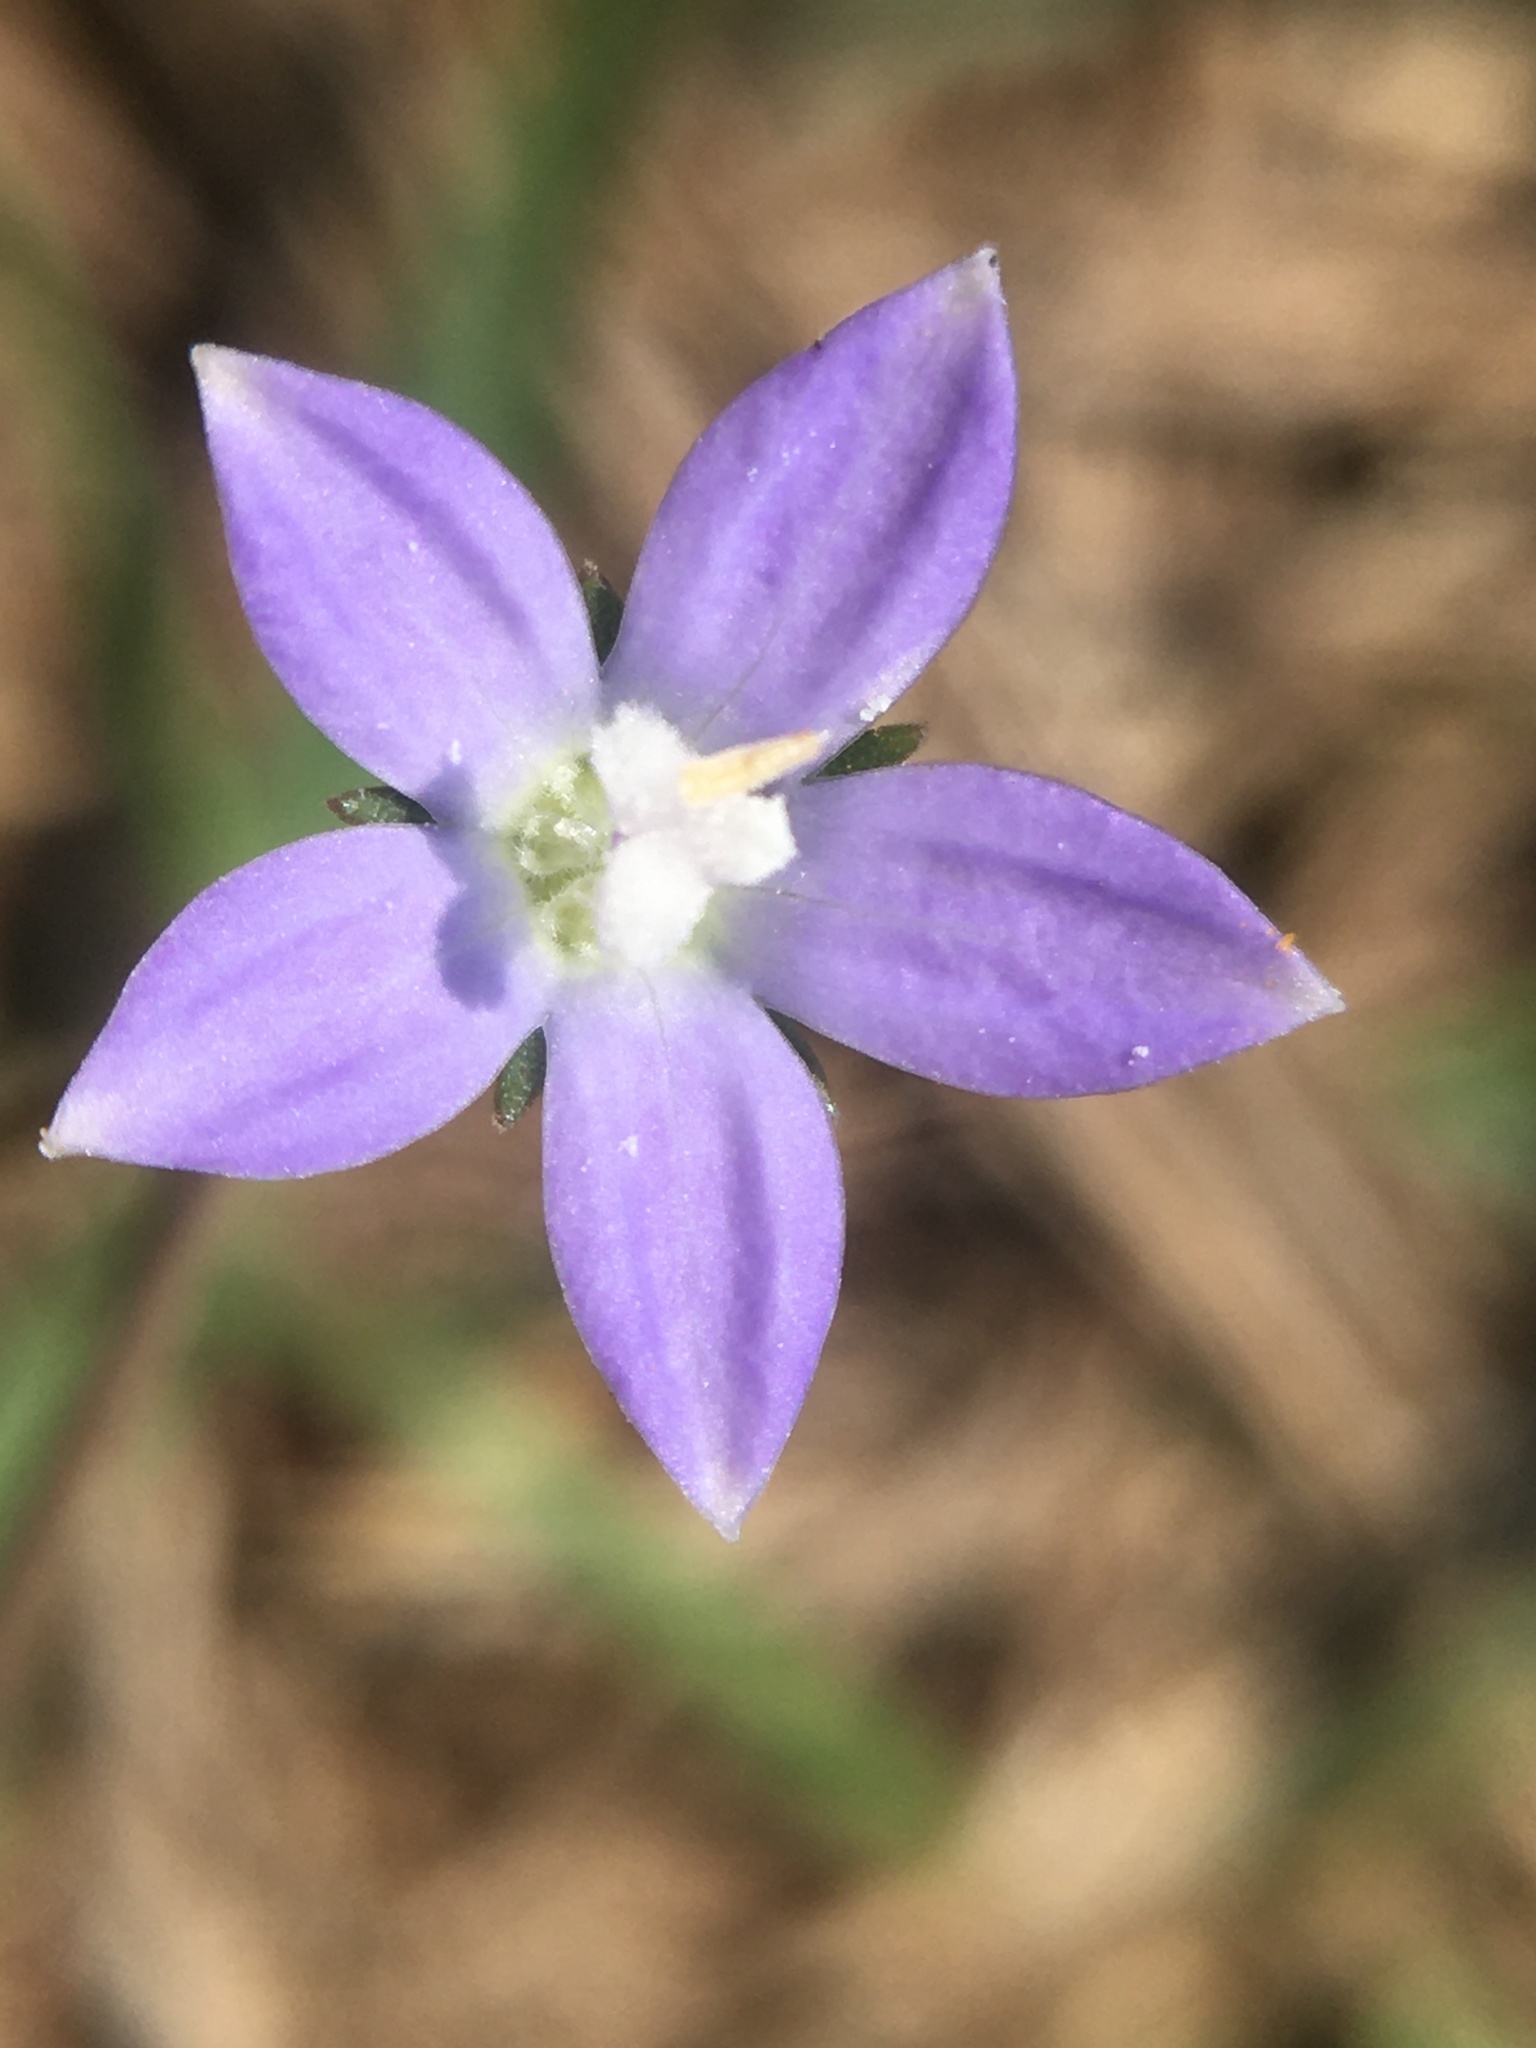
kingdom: Plantae
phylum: Tracheophyta
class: Magnoliopsida
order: Asterales
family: Campanulaceae
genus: Wahlenbergia
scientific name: Wahlenbergia marginata
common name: Southern rockbell
